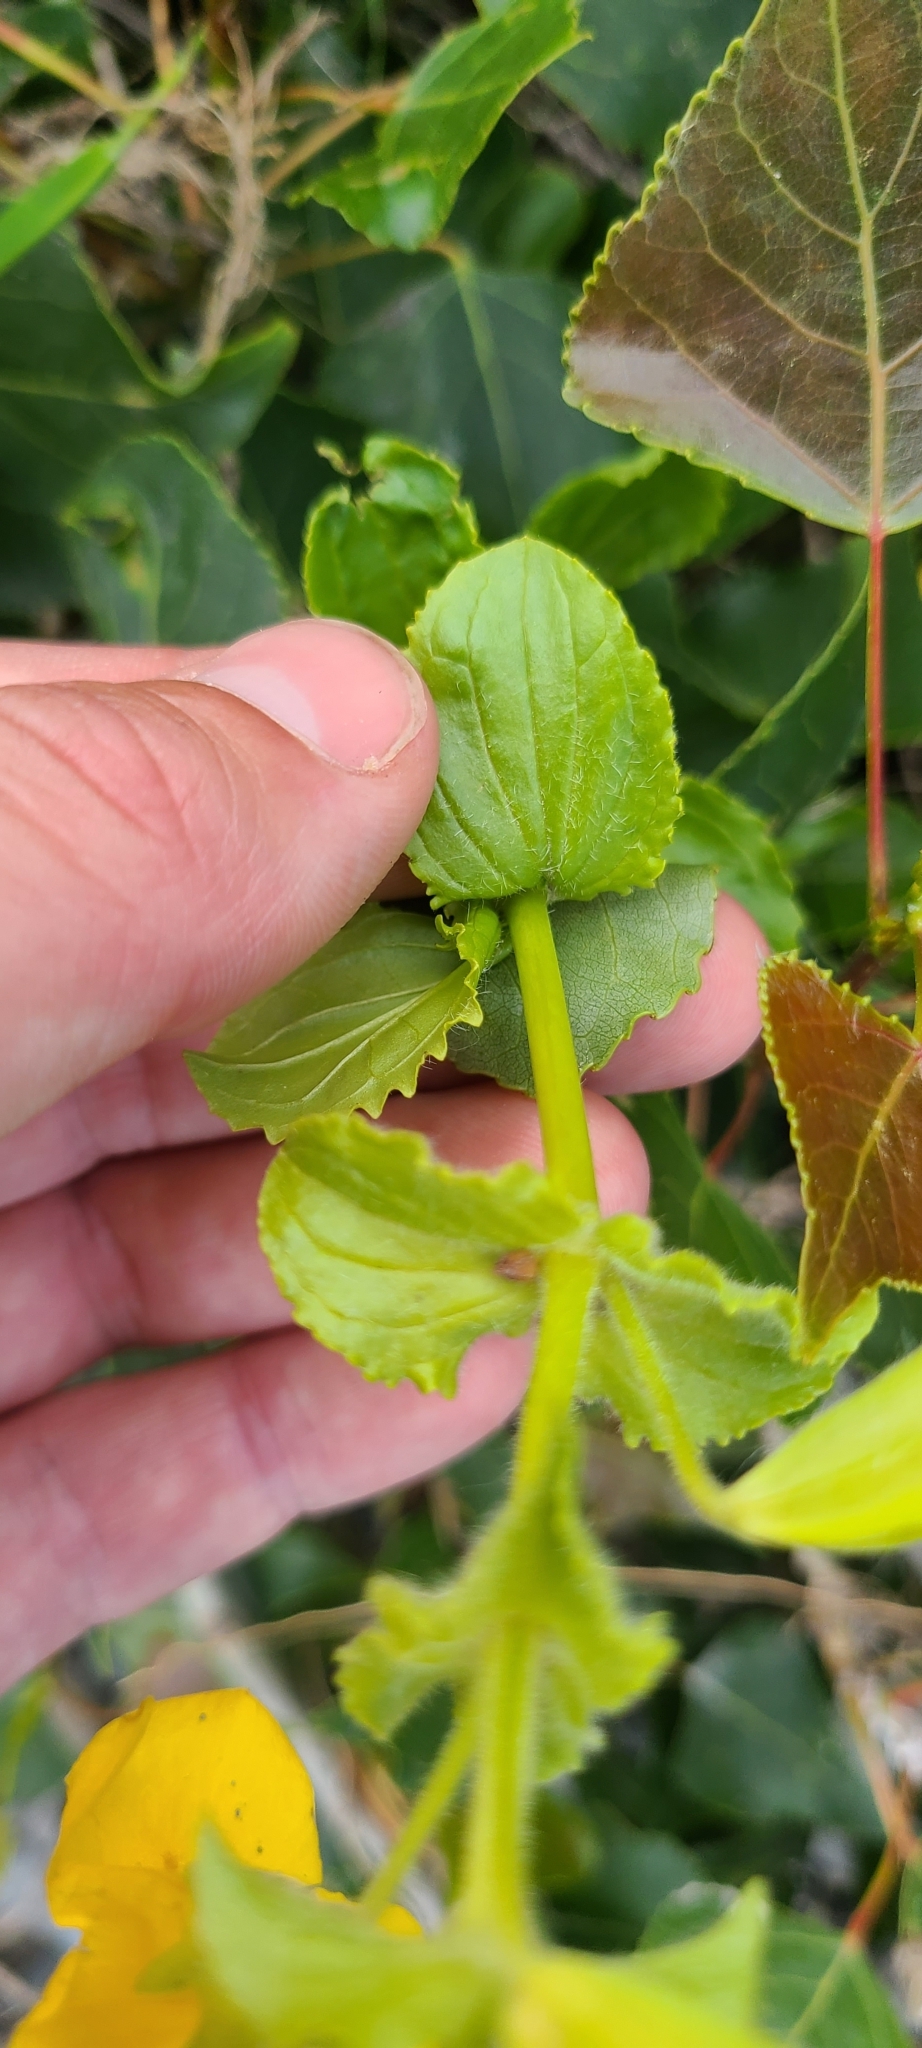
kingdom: Plantae
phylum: Tracheophyta
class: Magnoliopsida
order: Lamiales
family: Phrymaceae
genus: Erythranthe
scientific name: Erythranthe guttata
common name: Monkeyflower
